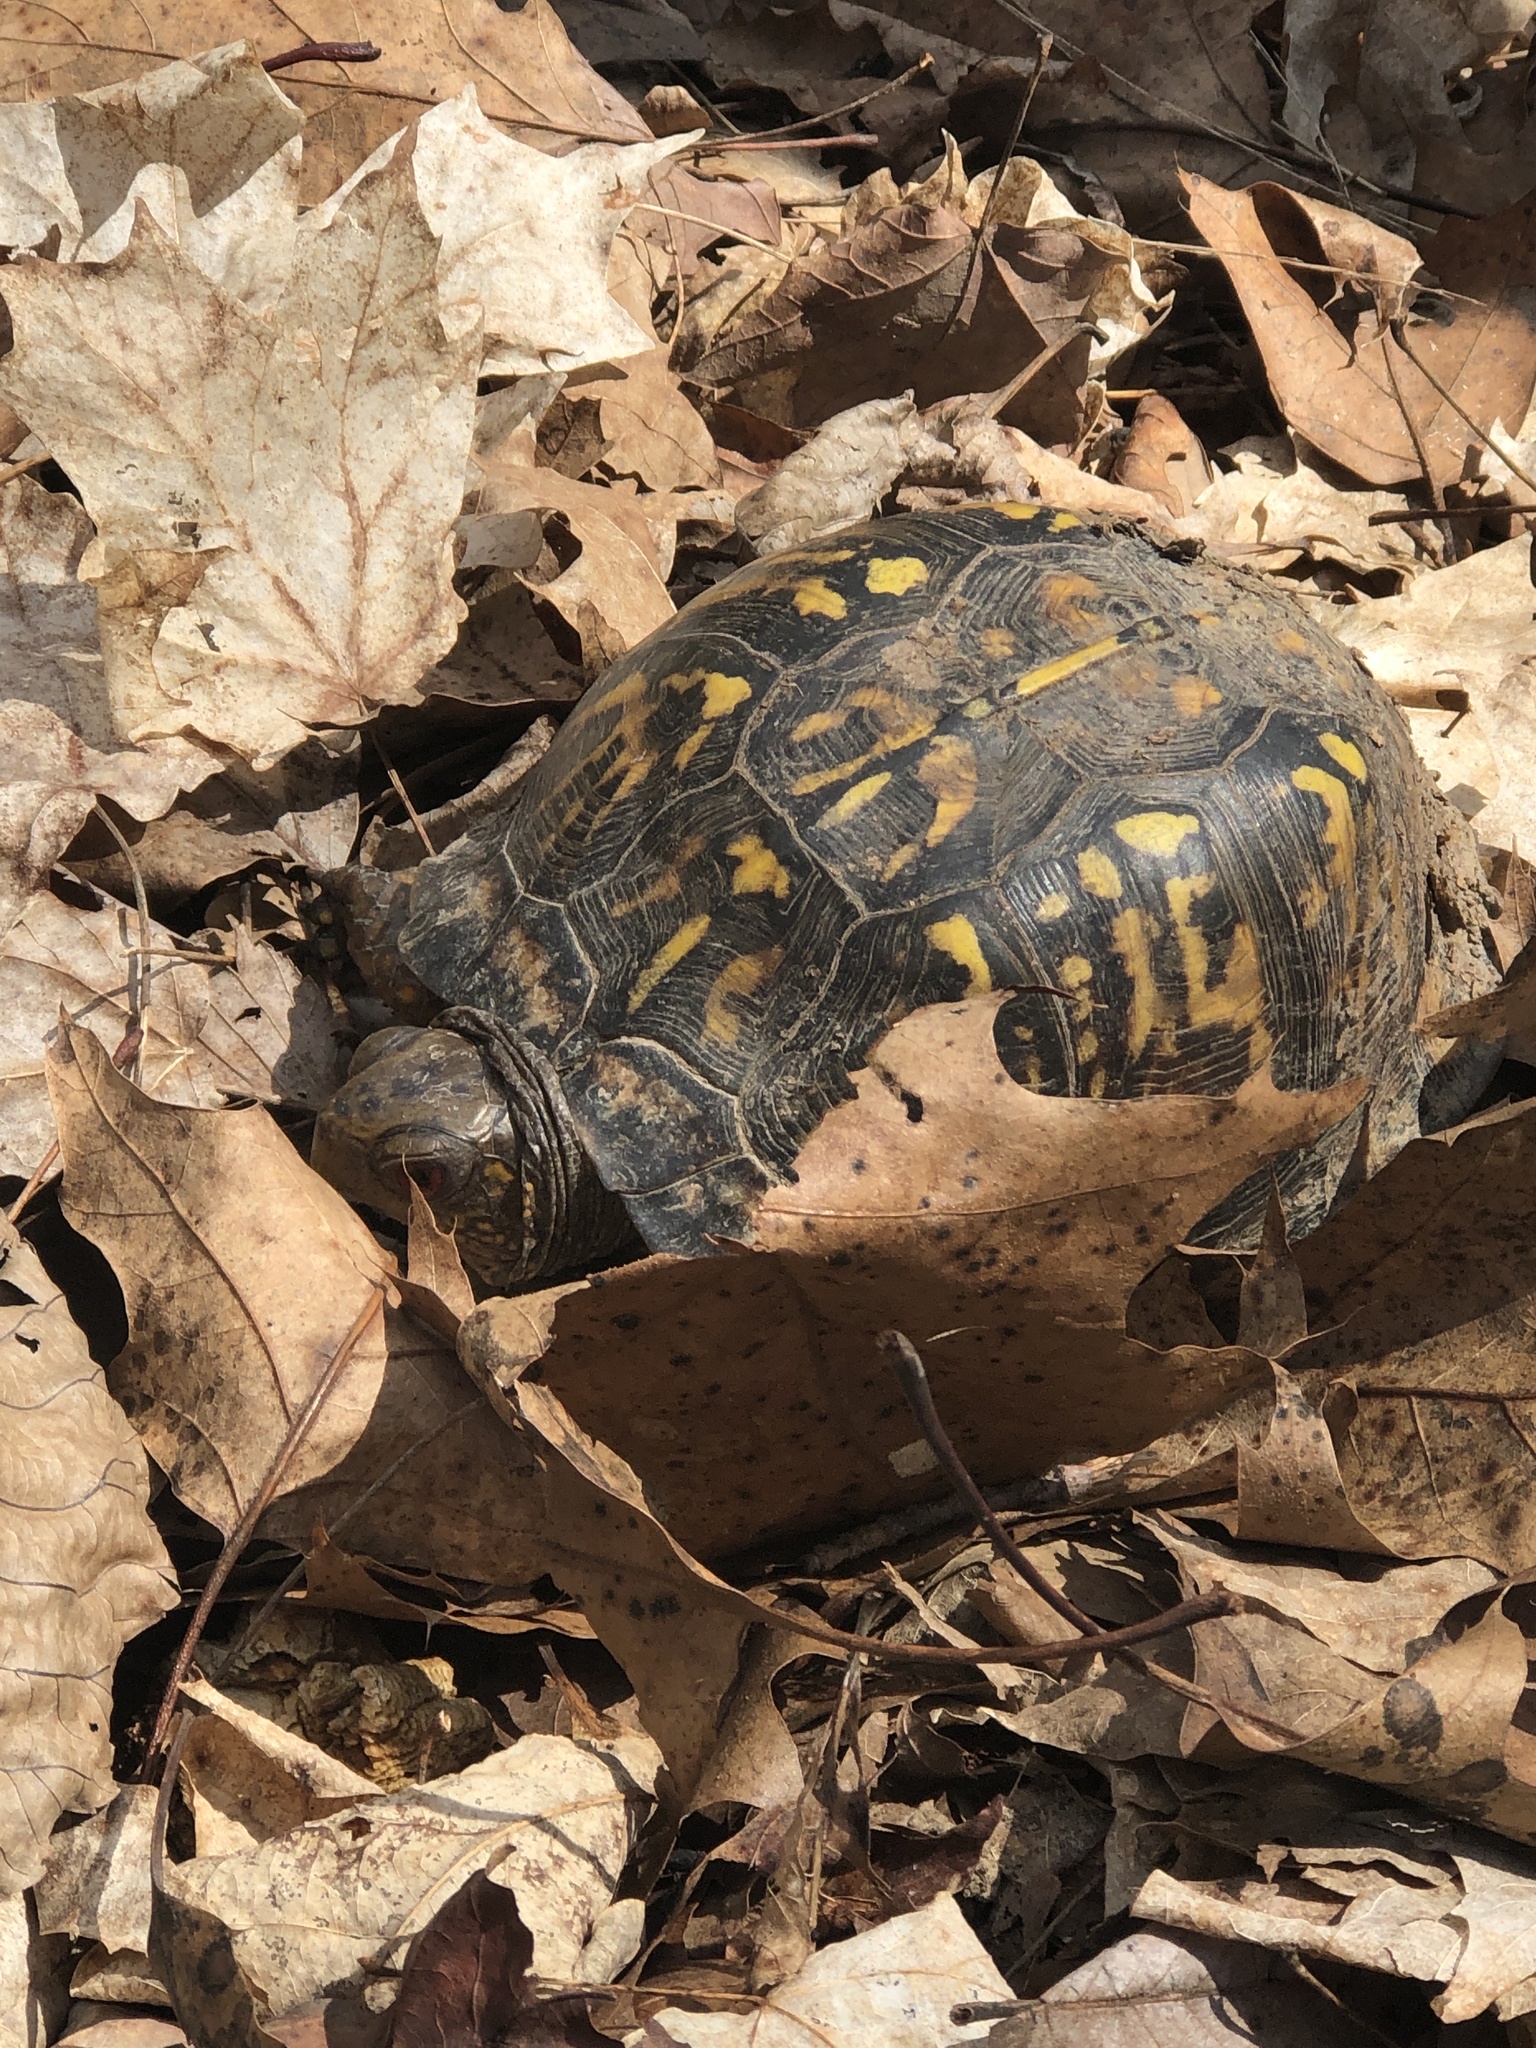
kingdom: Animalia
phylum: Chordata
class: Testudines
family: Emydidae
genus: Terrapene
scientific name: Terrapene carolina
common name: Common box turtle
